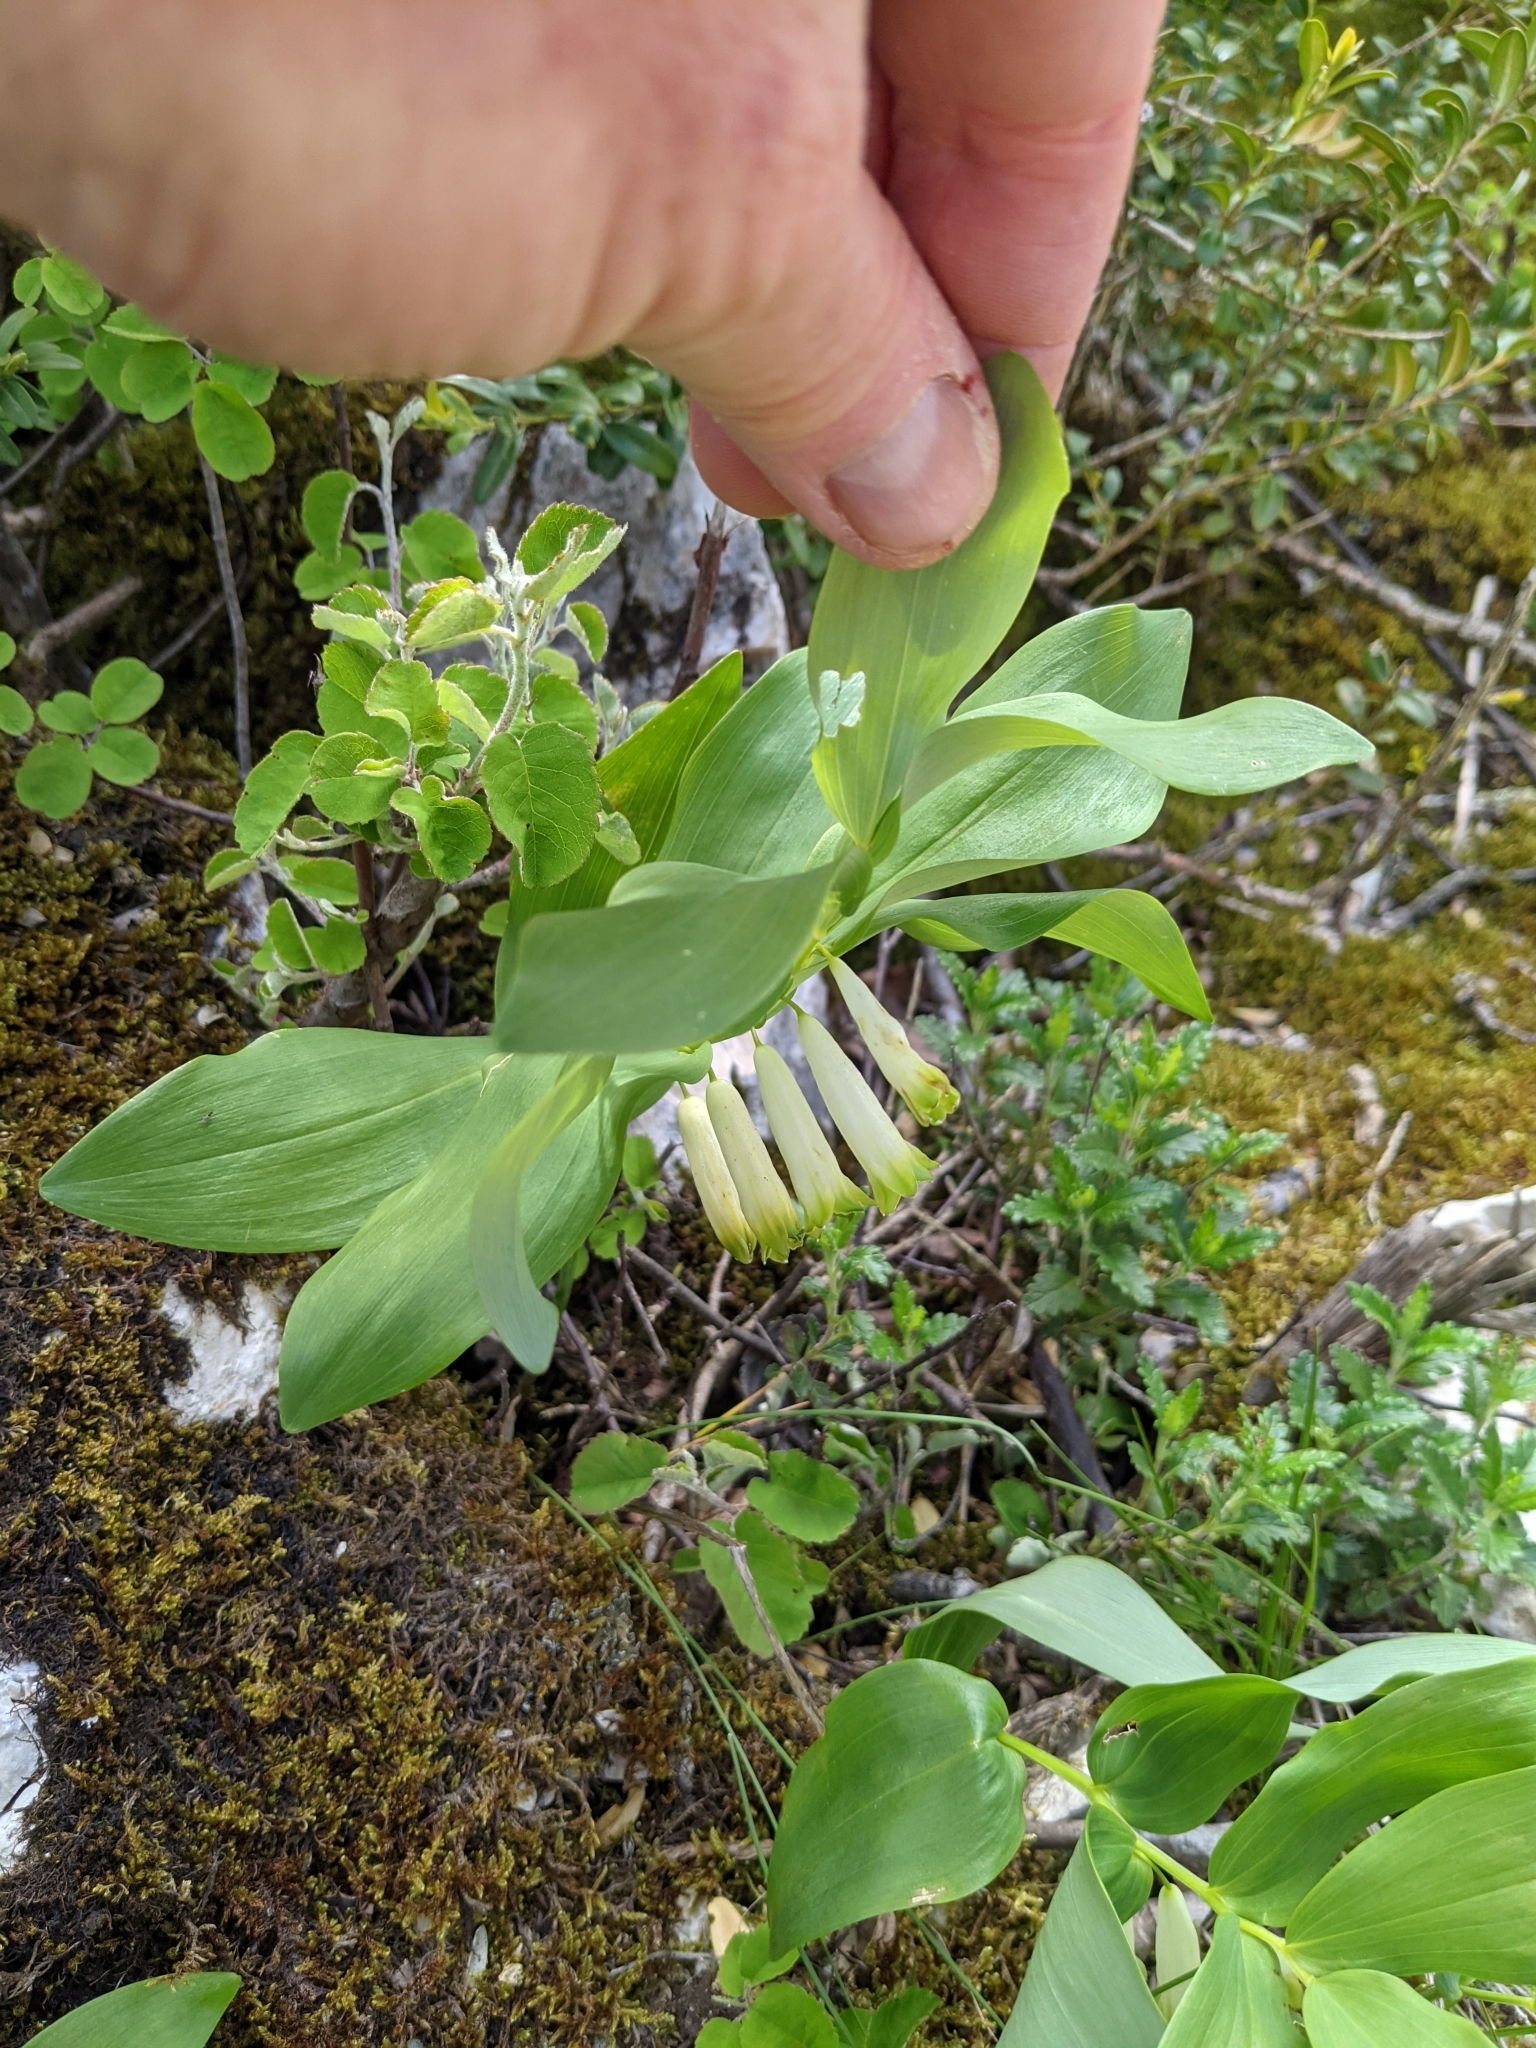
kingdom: Plantae
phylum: Tracheophyta
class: Liliopsida
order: Asparagales
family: Asparagaceae
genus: Polygonatum
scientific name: Polygonatum odoratum
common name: Angular solomon's-seal
